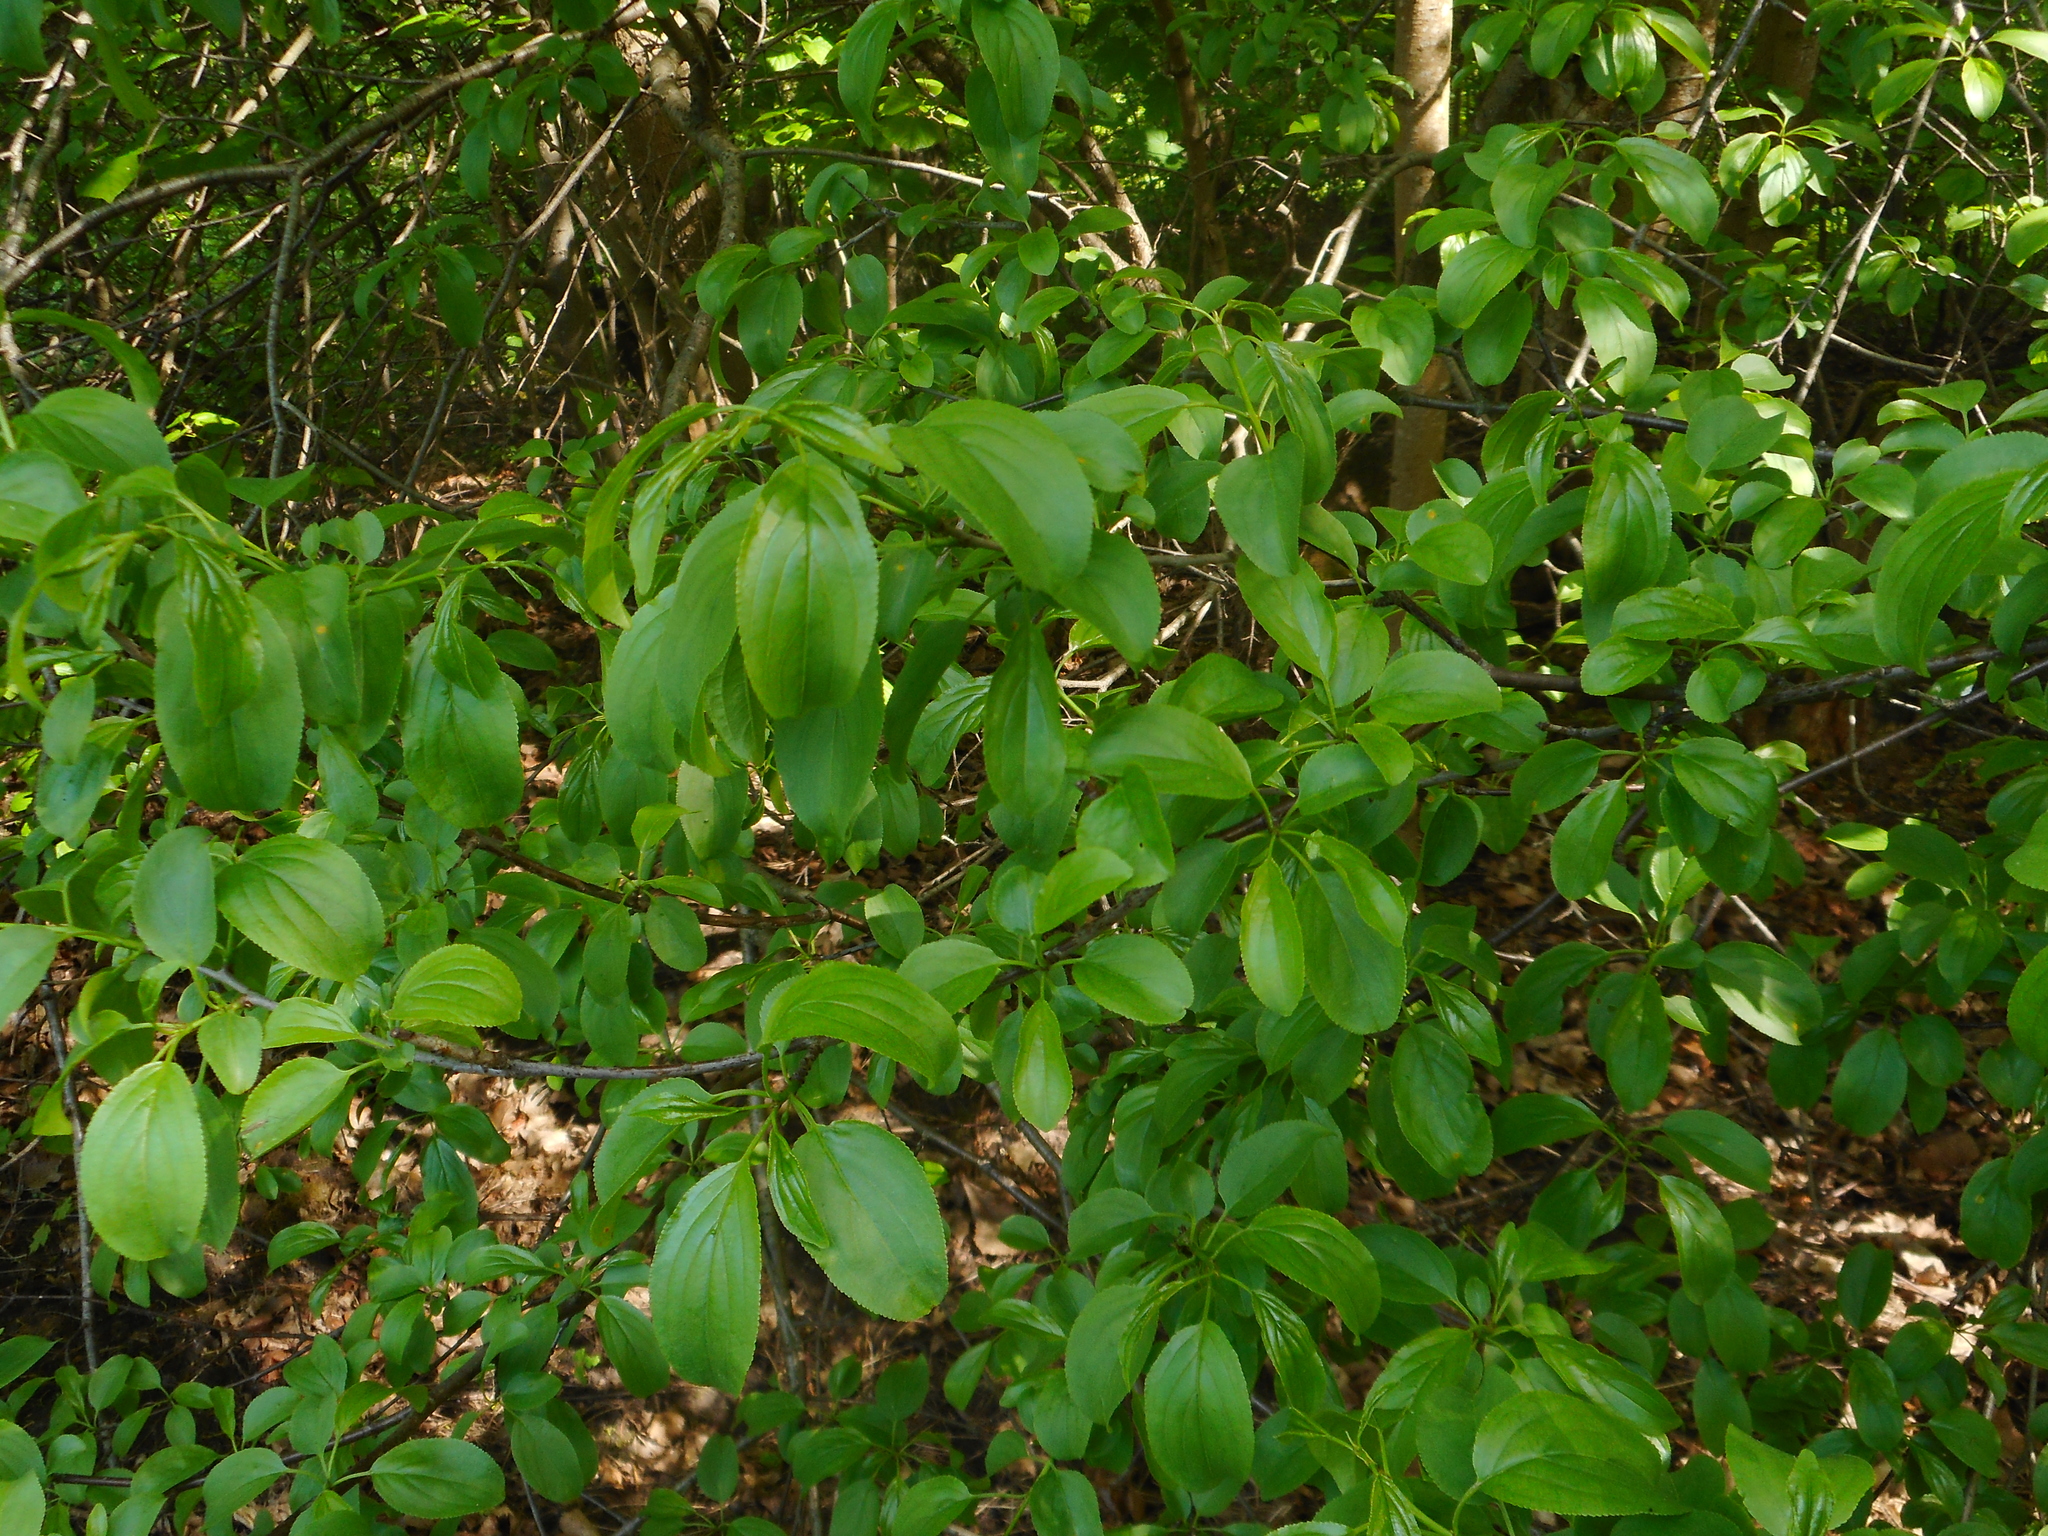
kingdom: Plantae
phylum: Tracheophyta
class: Magnoliopsida
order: Rosales
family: Rhamnaceae
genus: Rhamnus
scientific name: Rhamnus cathartica
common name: Common buckthorn
